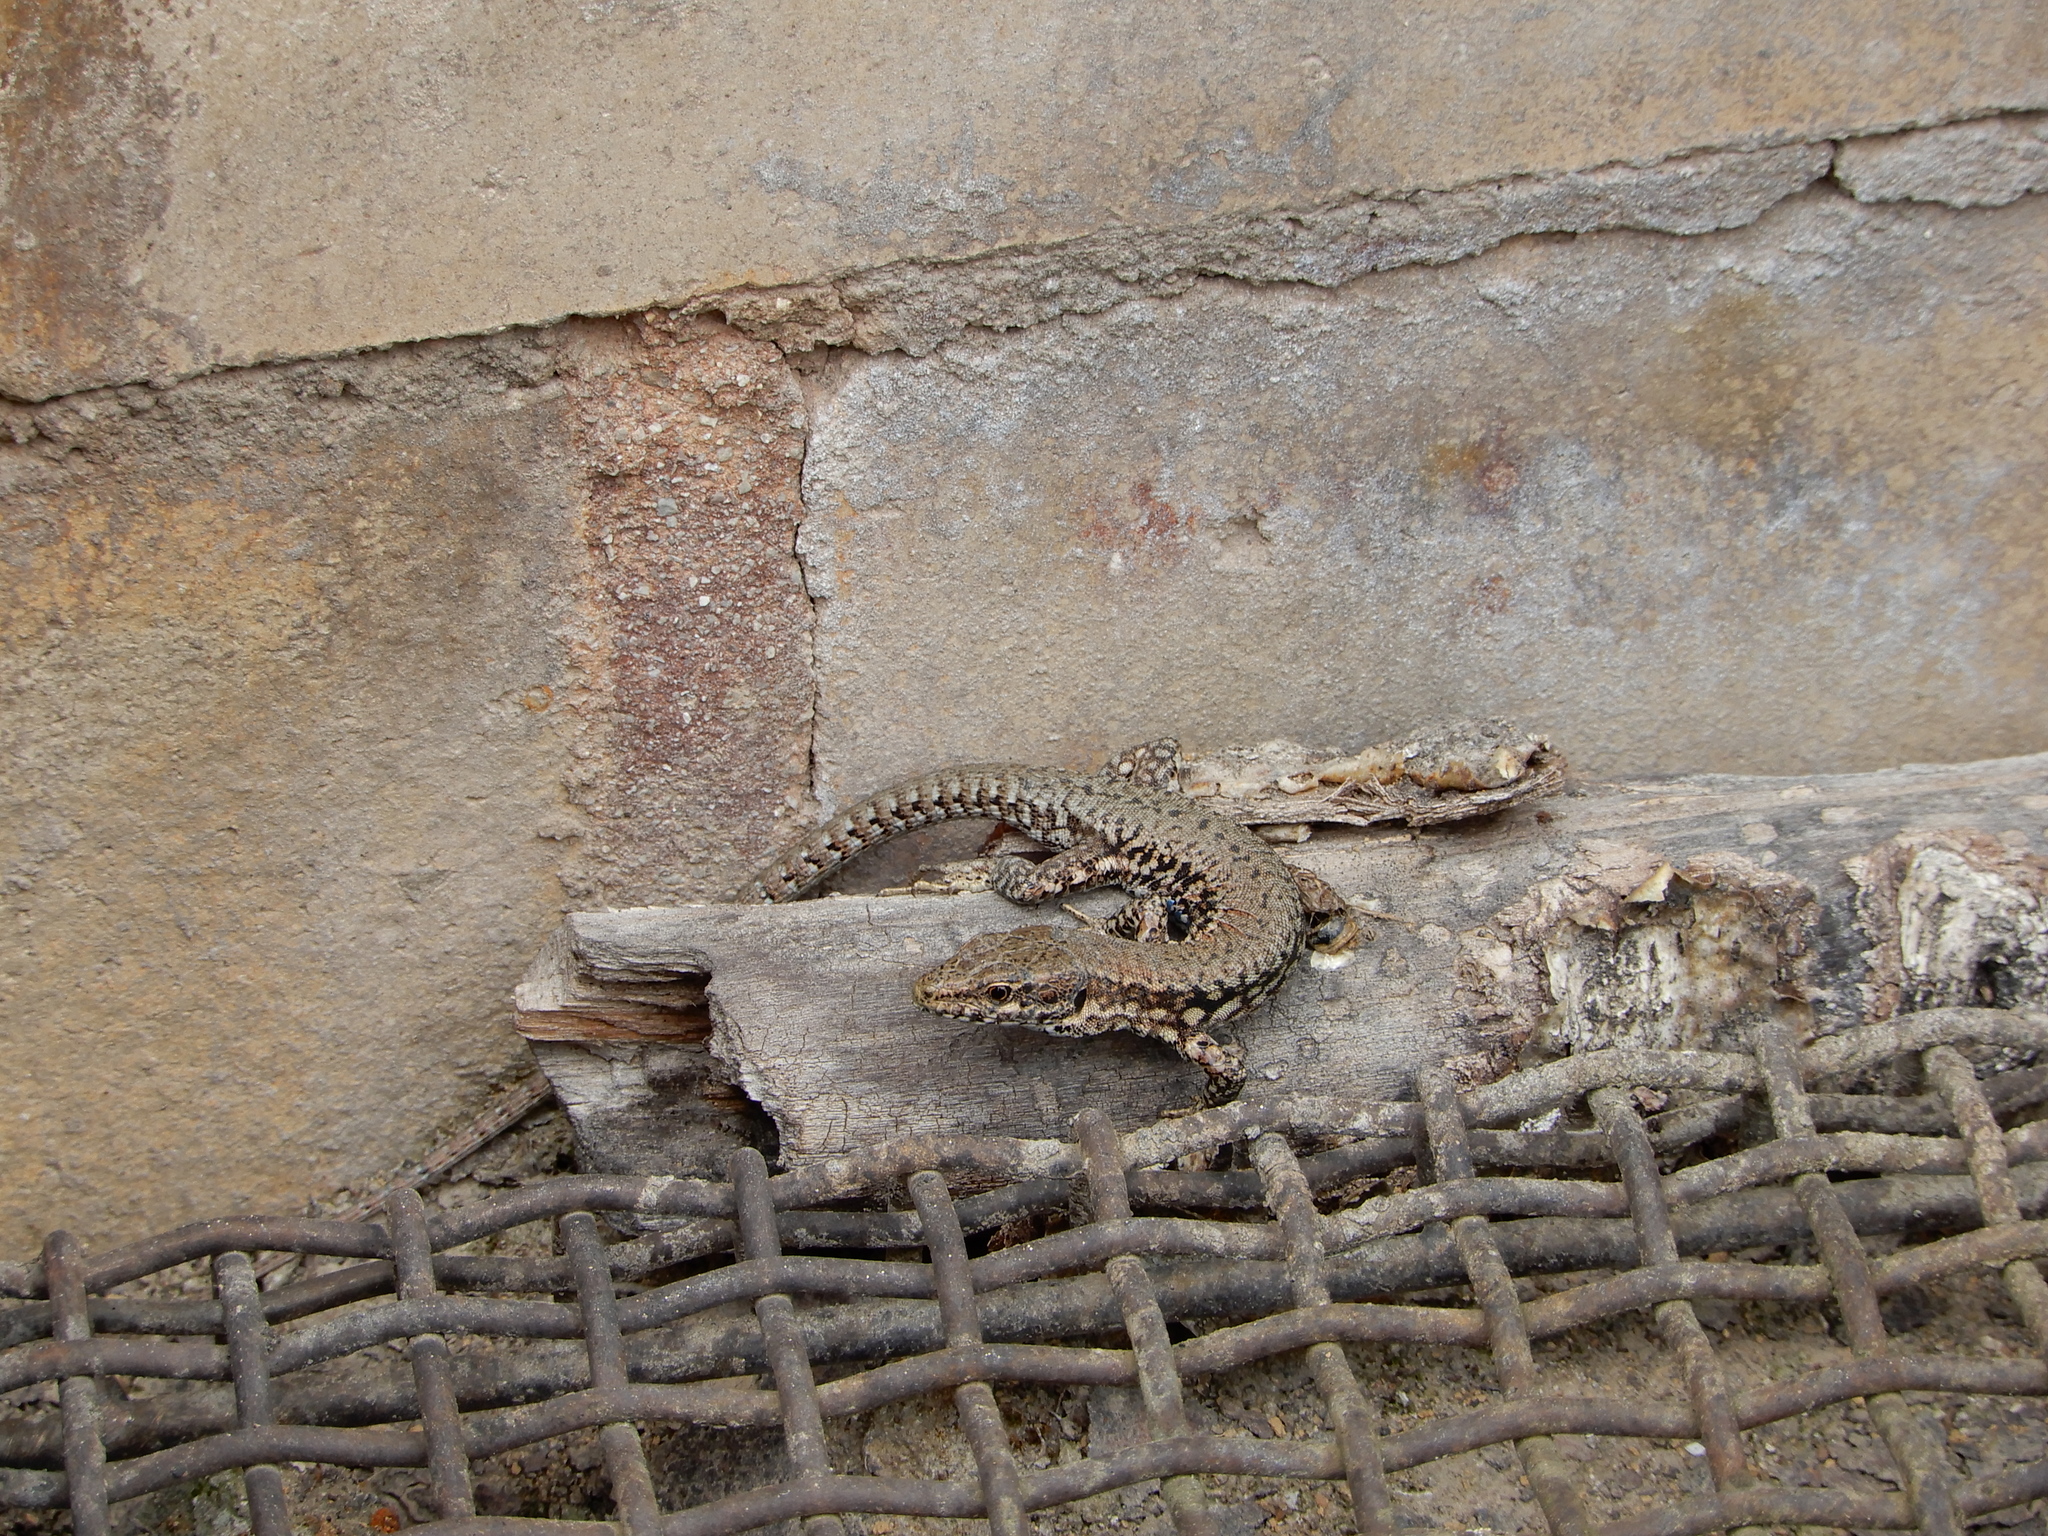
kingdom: Animalia
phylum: Chordata
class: Squamata
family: Lacertidae
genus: Podarcis
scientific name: Podarcis muralis
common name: Common wall lizard
